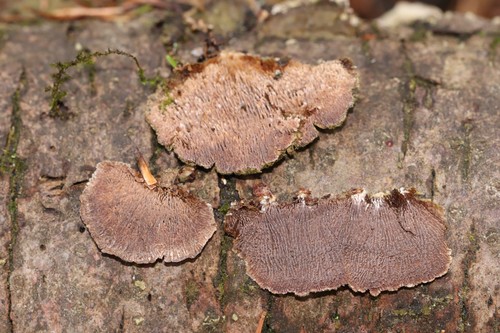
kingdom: Fungi
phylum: Basidiomycota
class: Agaricomycetes
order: Hymenochaetales
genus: Trichaptum
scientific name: Trichaptum fuscoviolaceum
